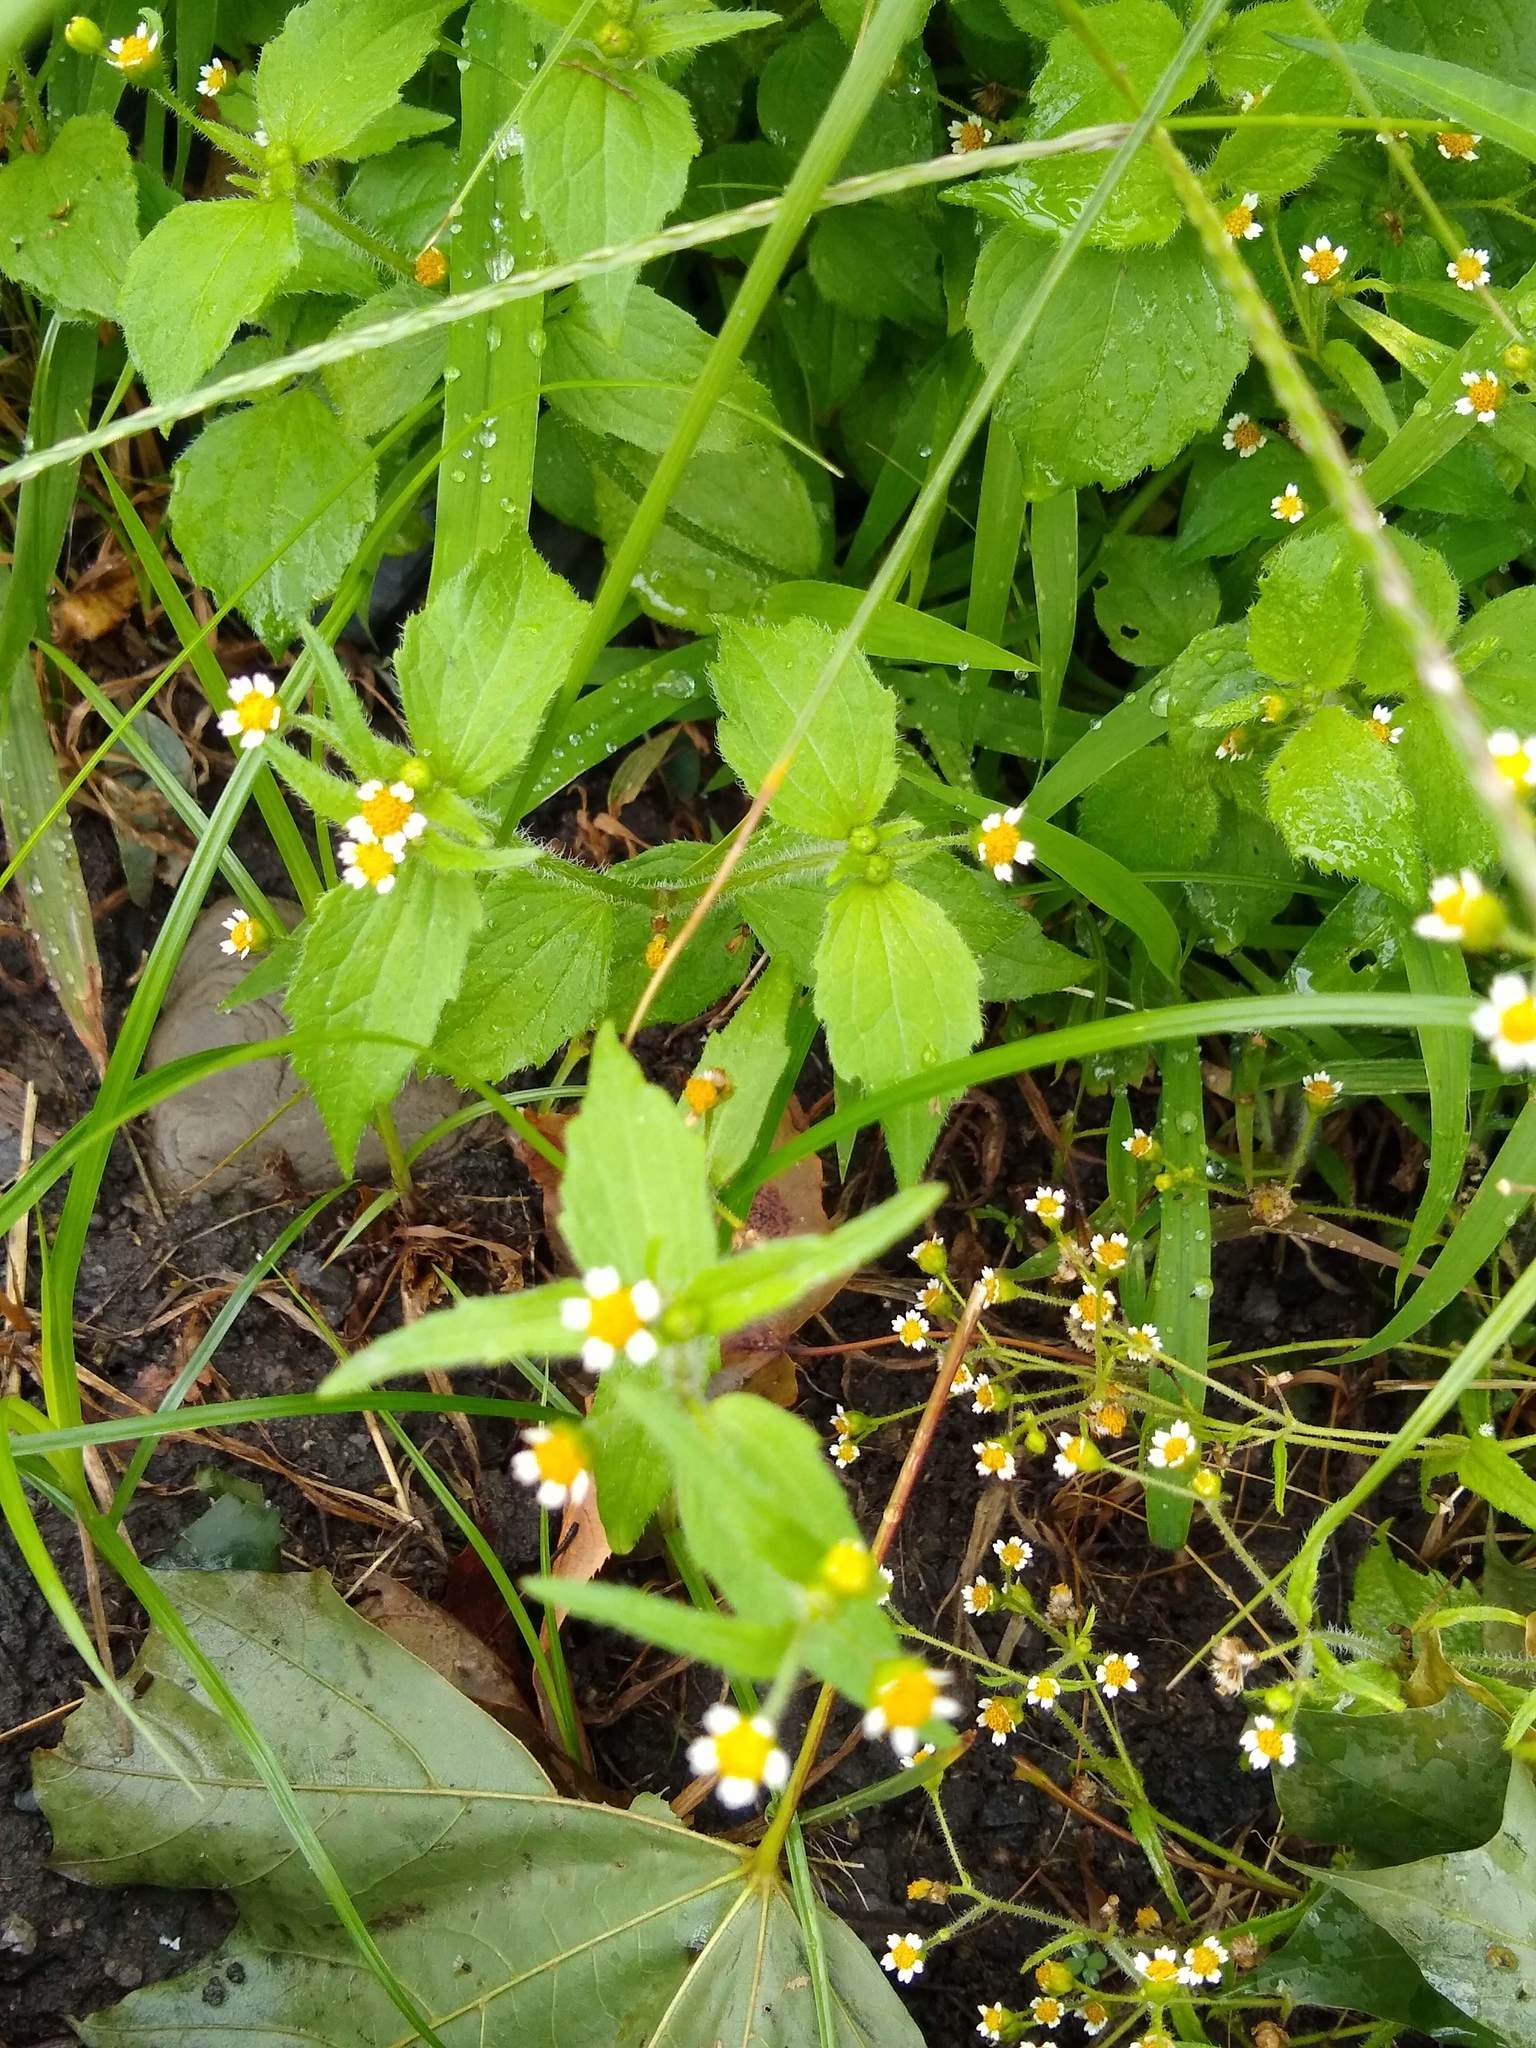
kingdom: Plantae
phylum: Tracheophyta
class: Magnoliopsida
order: Asterales
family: Asteraceae
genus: Galinsoga
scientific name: Galinsoga quadriradiata
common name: Shaggy soldier
